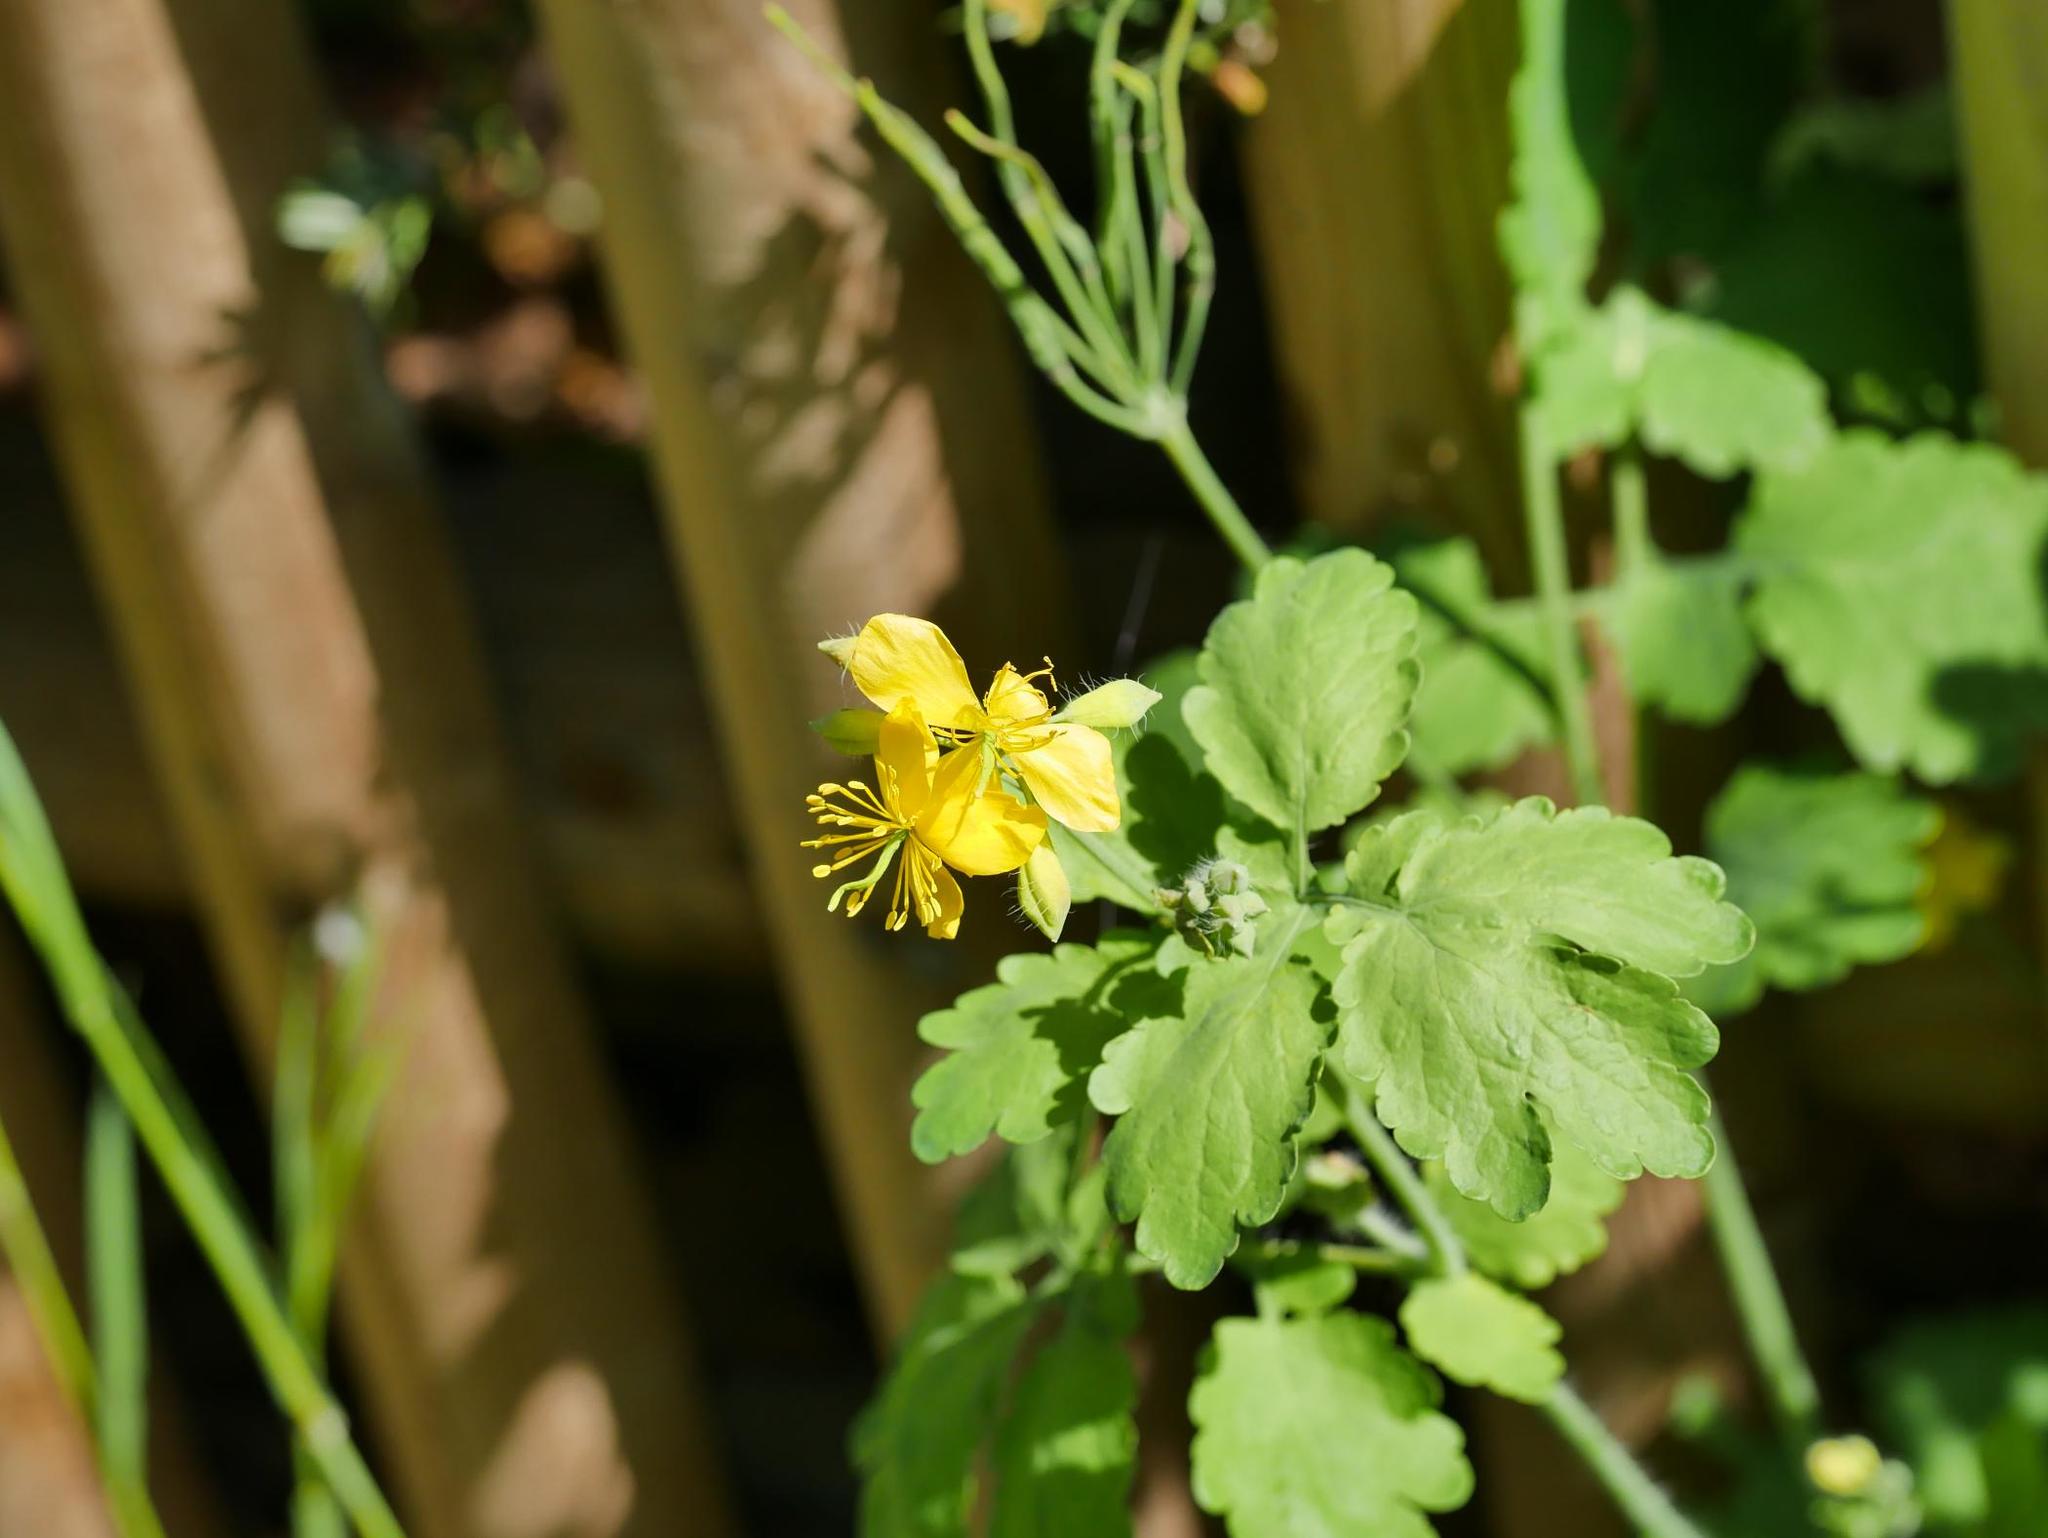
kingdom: Plantae
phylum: Tracheophyta
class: Magnoliopsida
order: Ranunculales
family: Papaveraceae
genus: Chelidonium
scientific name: Chelidonium majus
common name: Greater celandine
